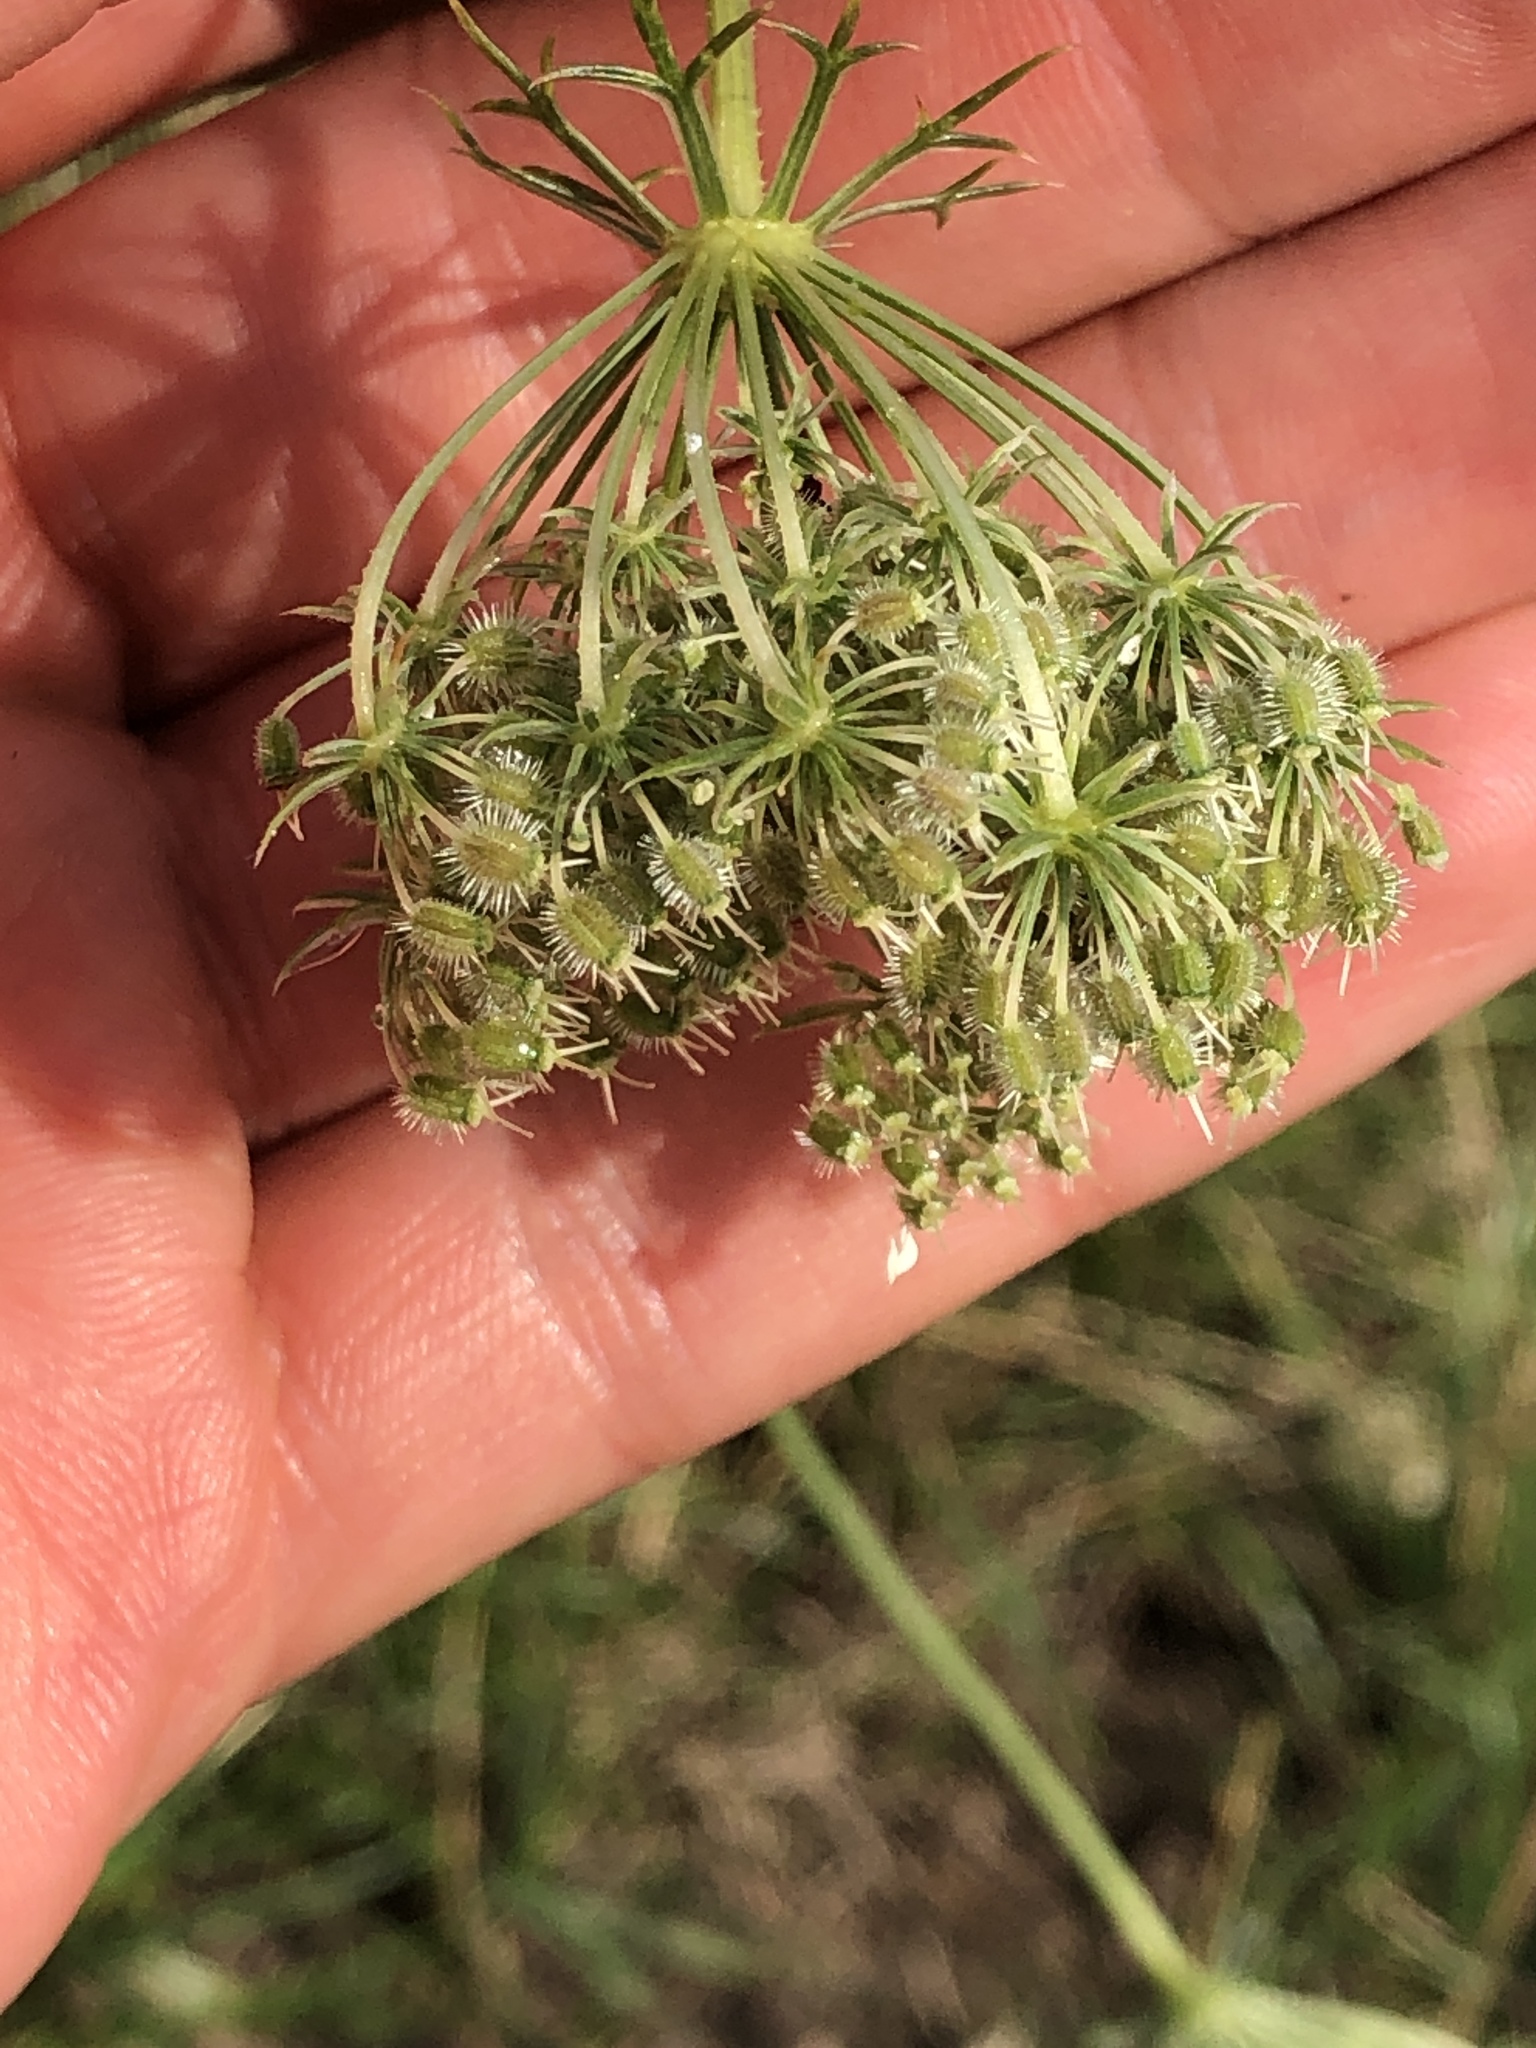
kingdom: Plantae
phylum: Tracheophyta
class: Magnoliopsida
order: Apiales
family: Apiaceae
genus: Daucus
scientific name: Daucus carota
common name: Wild carrot
